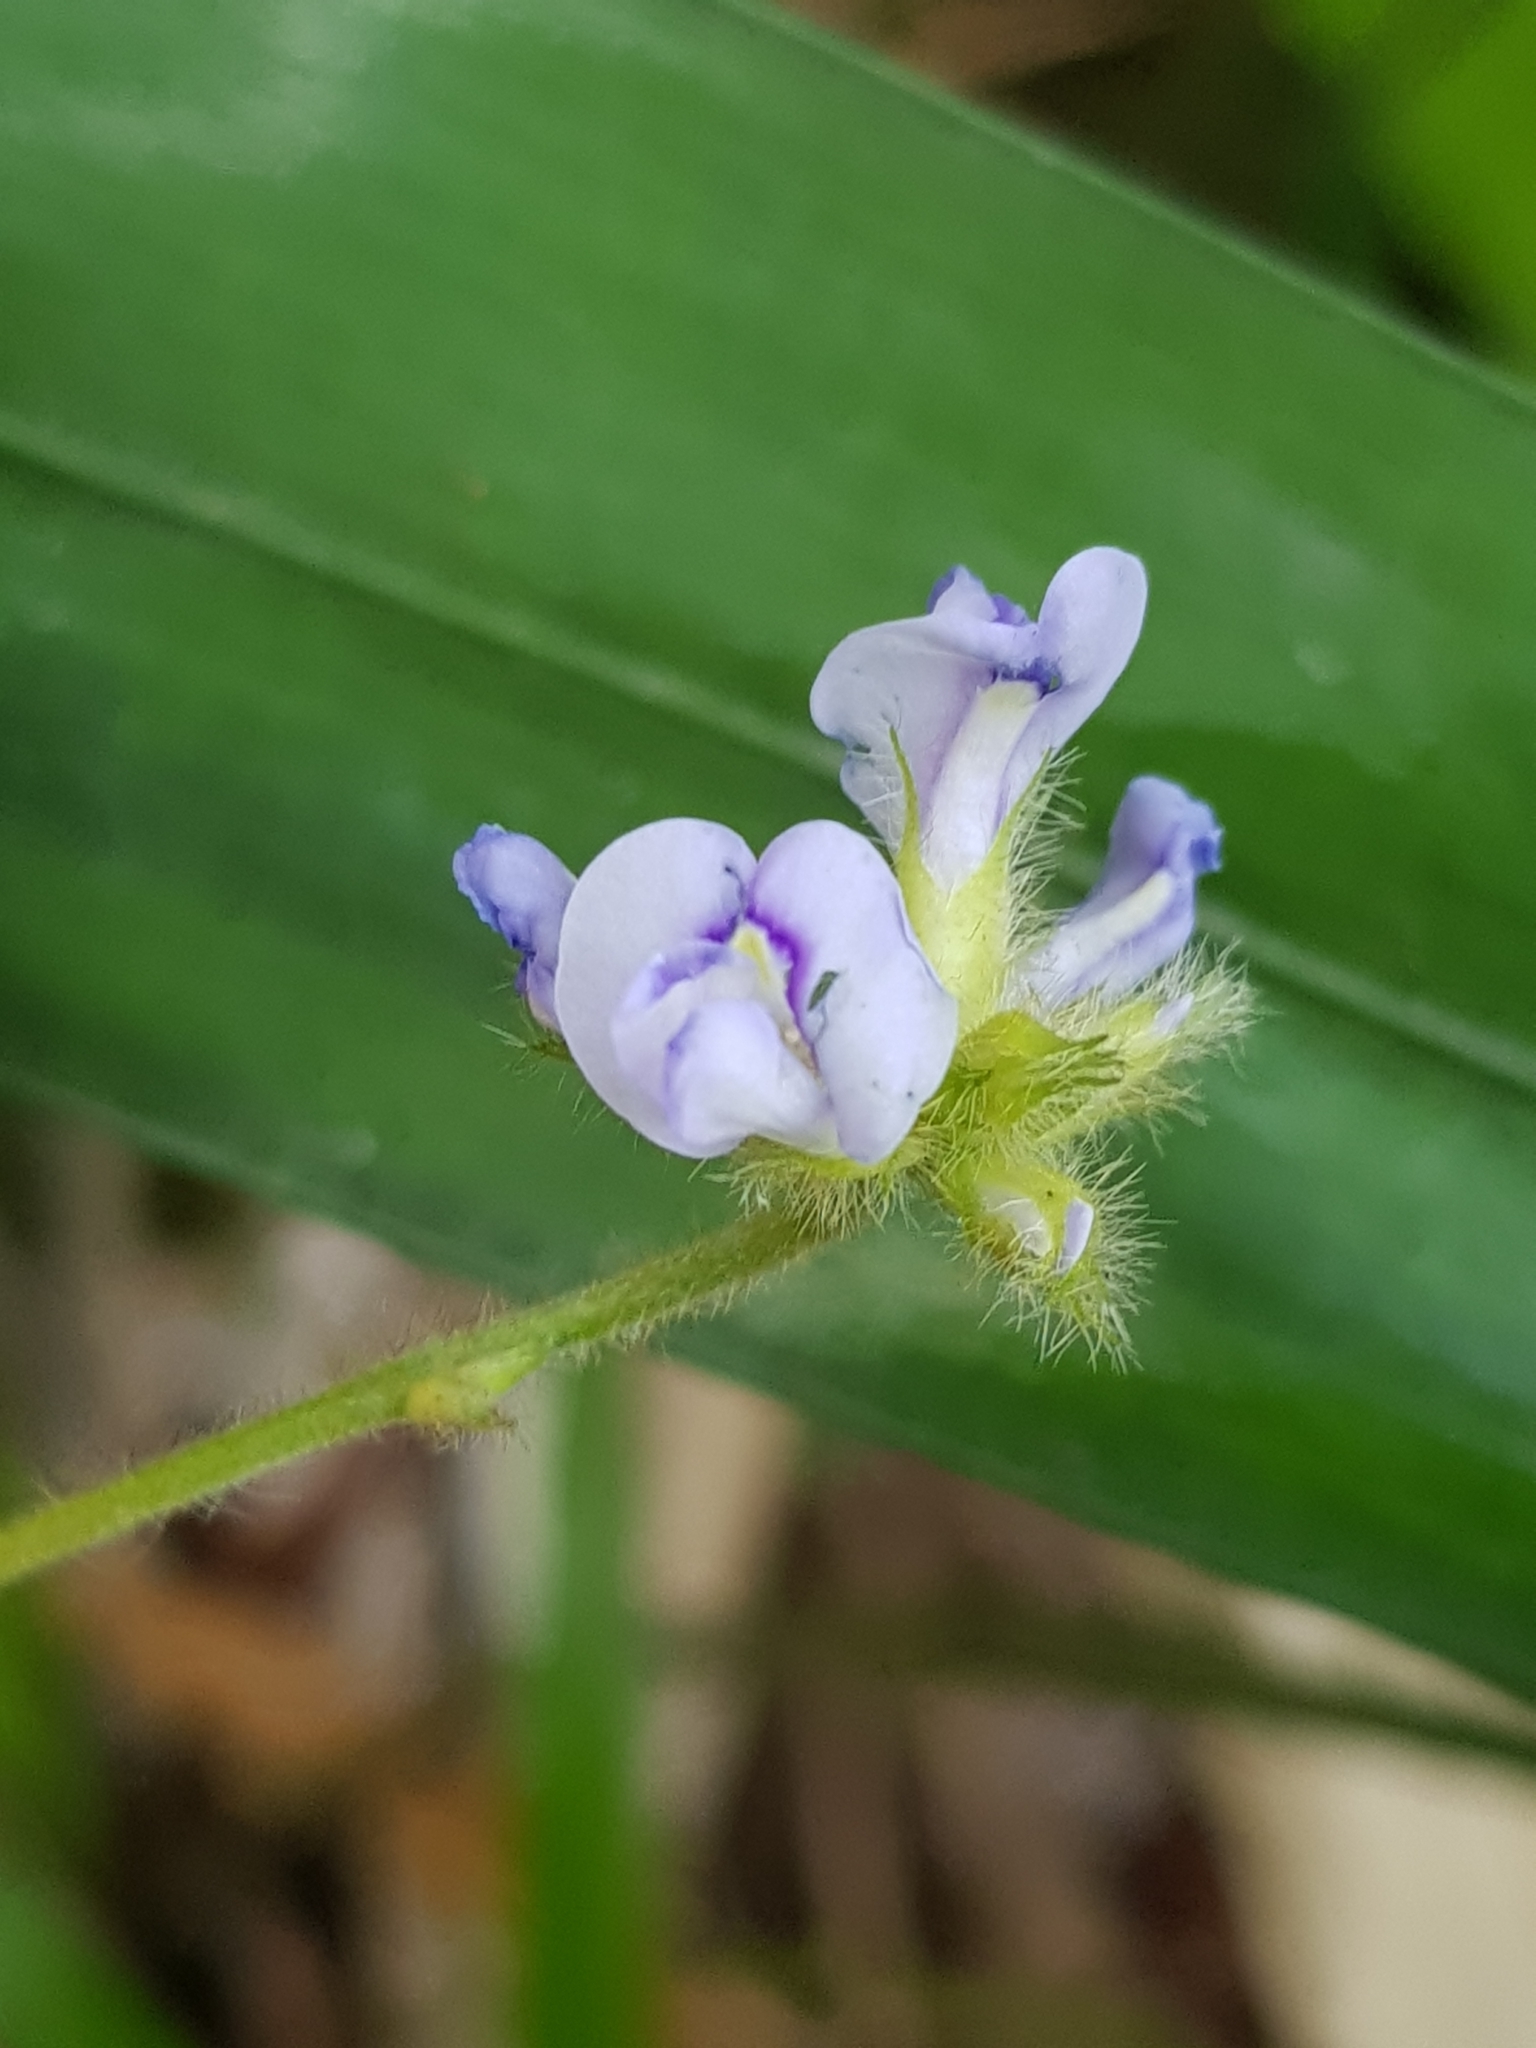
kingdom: Plantae
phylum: Tracheophyta
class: Magnoliopsida
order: Fabales
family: Fabaceae
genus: Calopogonium
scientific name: Calopogonium mucunoides
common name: Calopo
